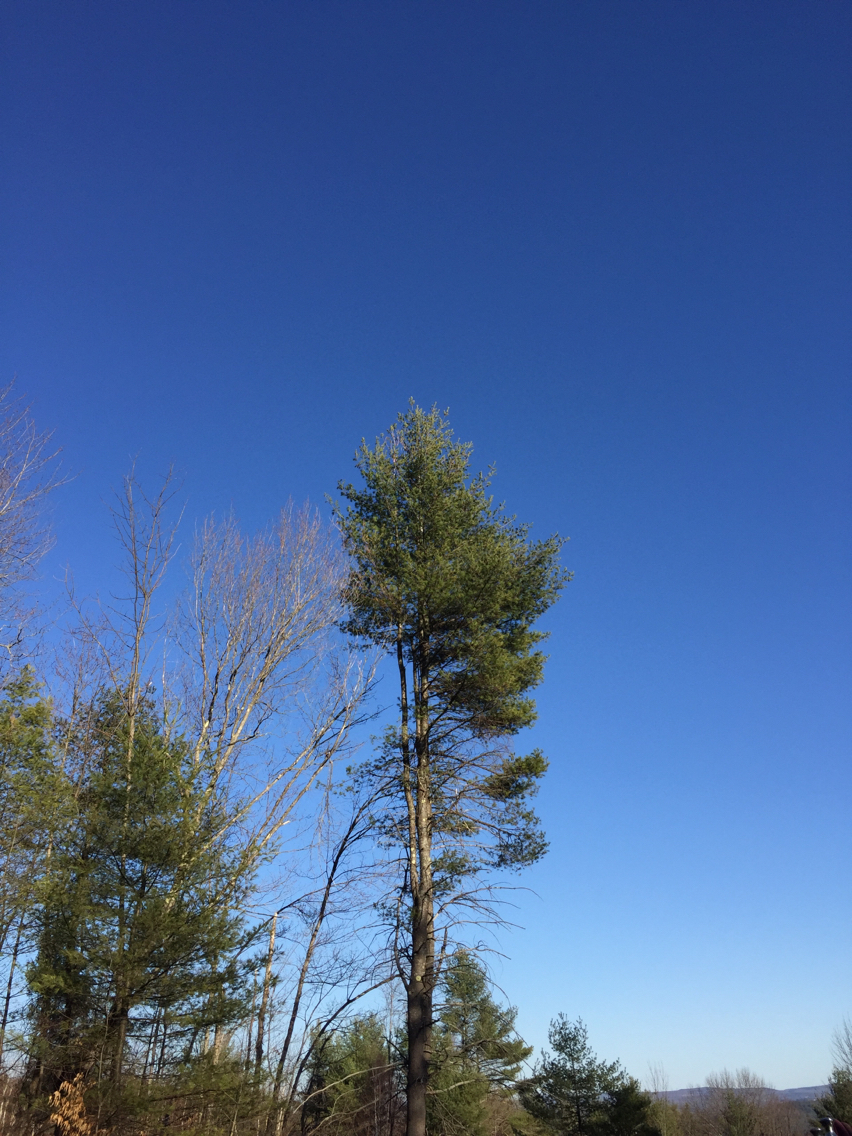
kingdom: Plantae
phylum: Tracheophyta
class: Pinopsida
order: Pinales
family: Pinaceae
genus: Pinus
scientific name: Pinus strobus
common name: Weymouth pine
